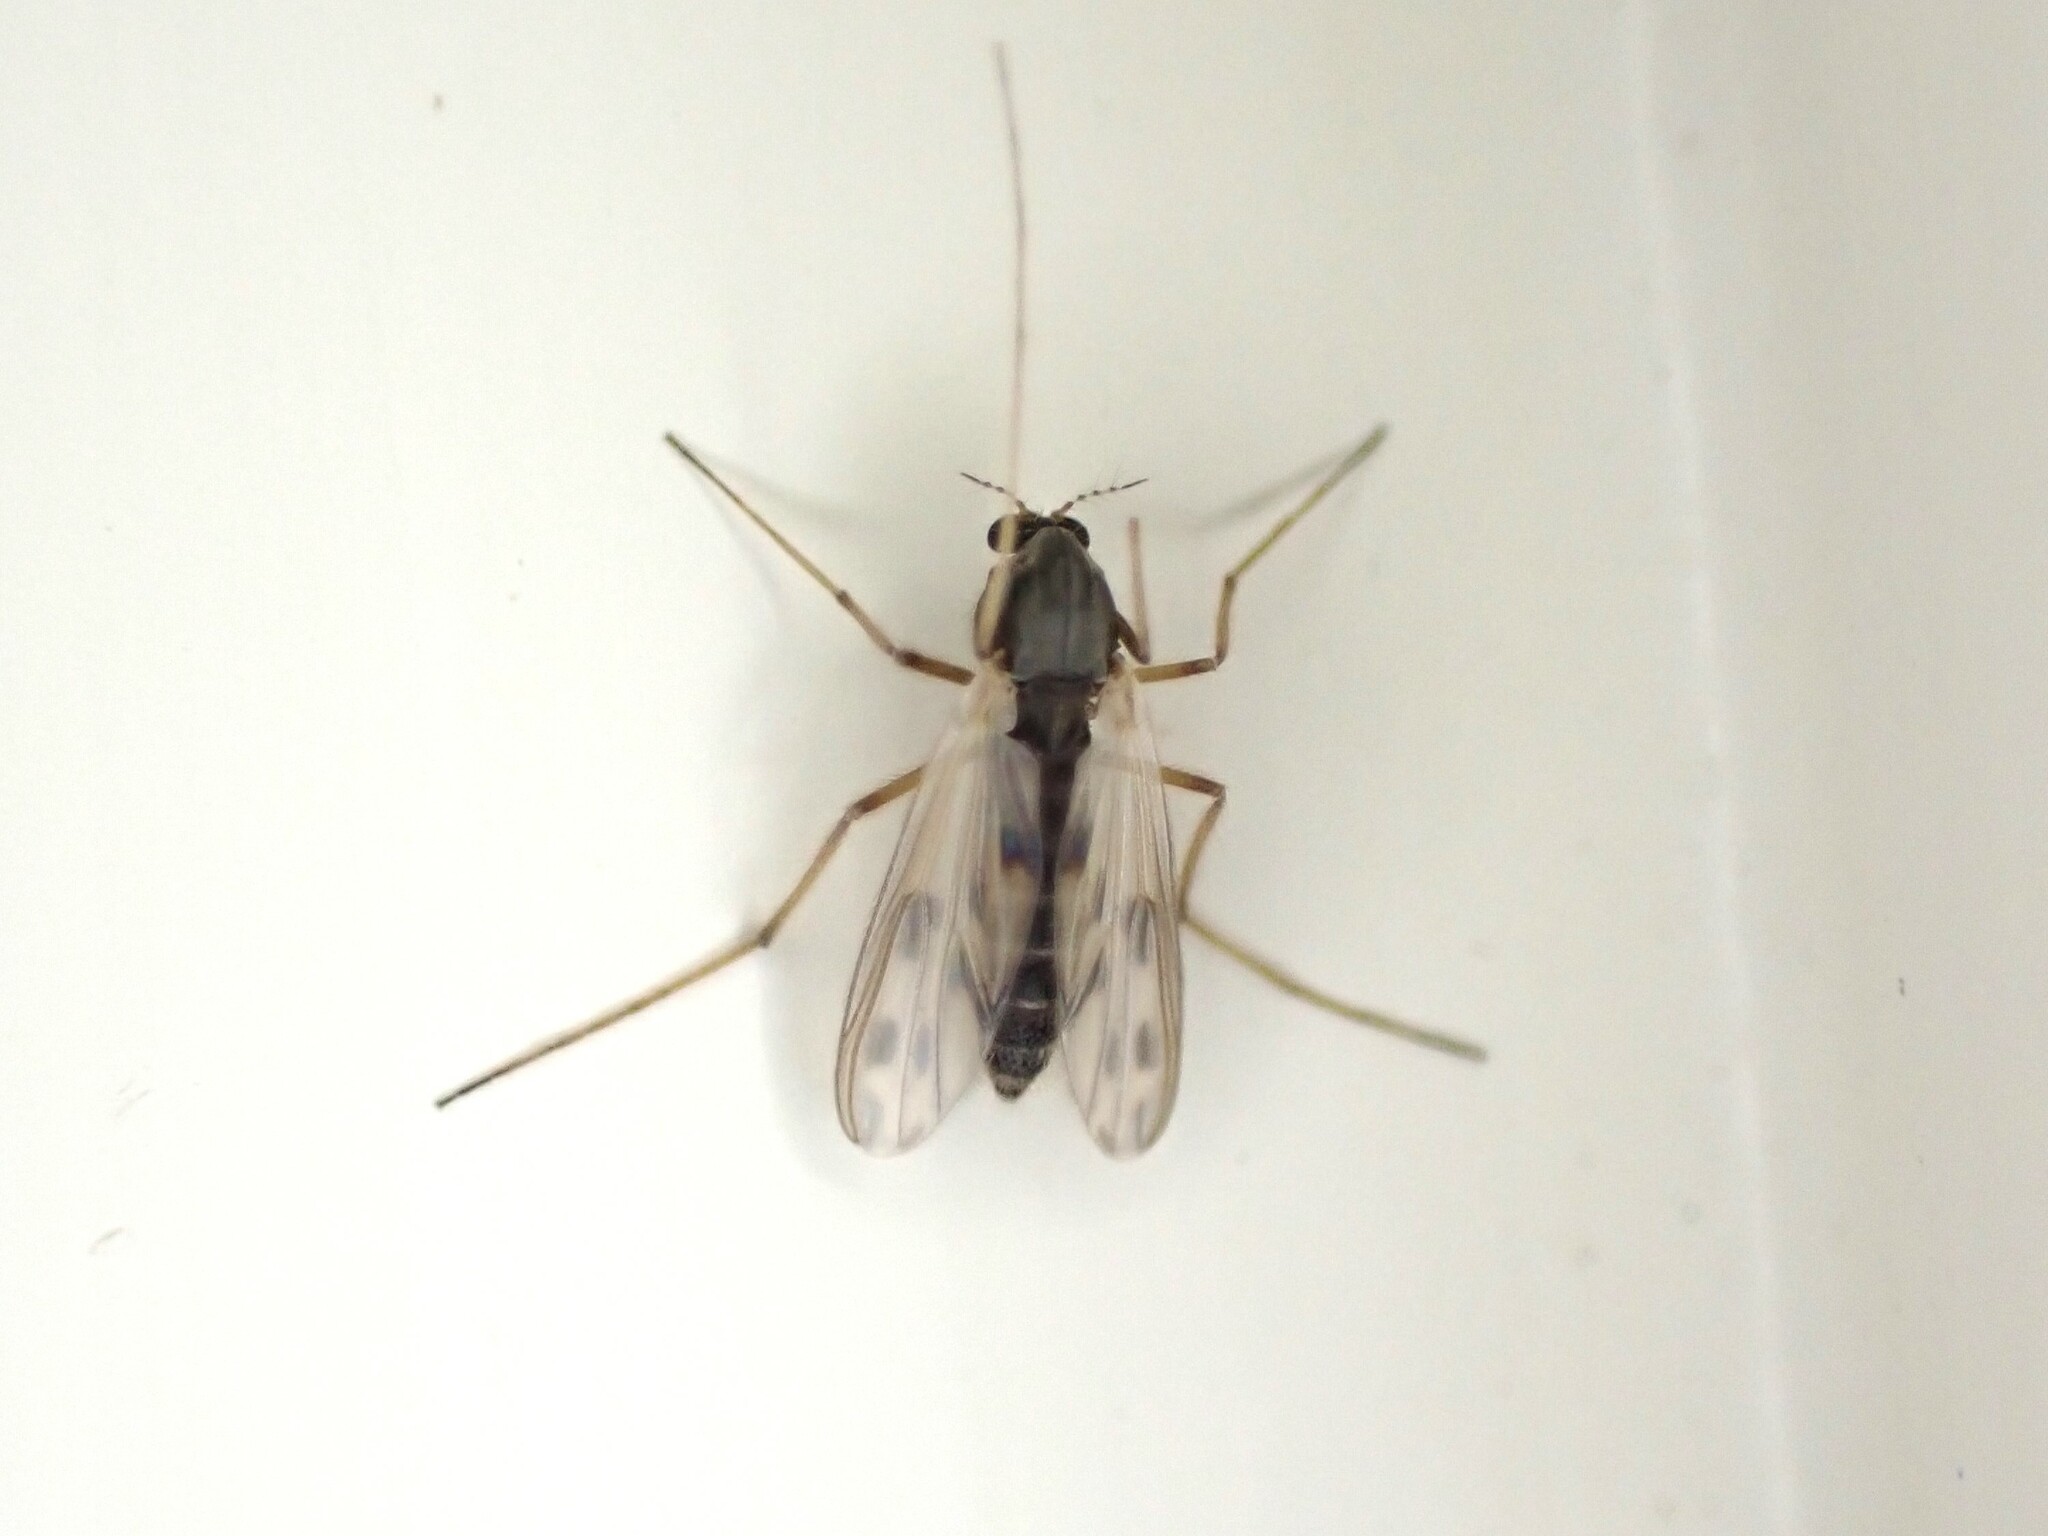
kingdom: Animalia
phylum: Arthropoda
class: Insecta
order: Diptera
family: Chironomidae
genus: Polypedilum
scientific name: Polypedilum pavidus
